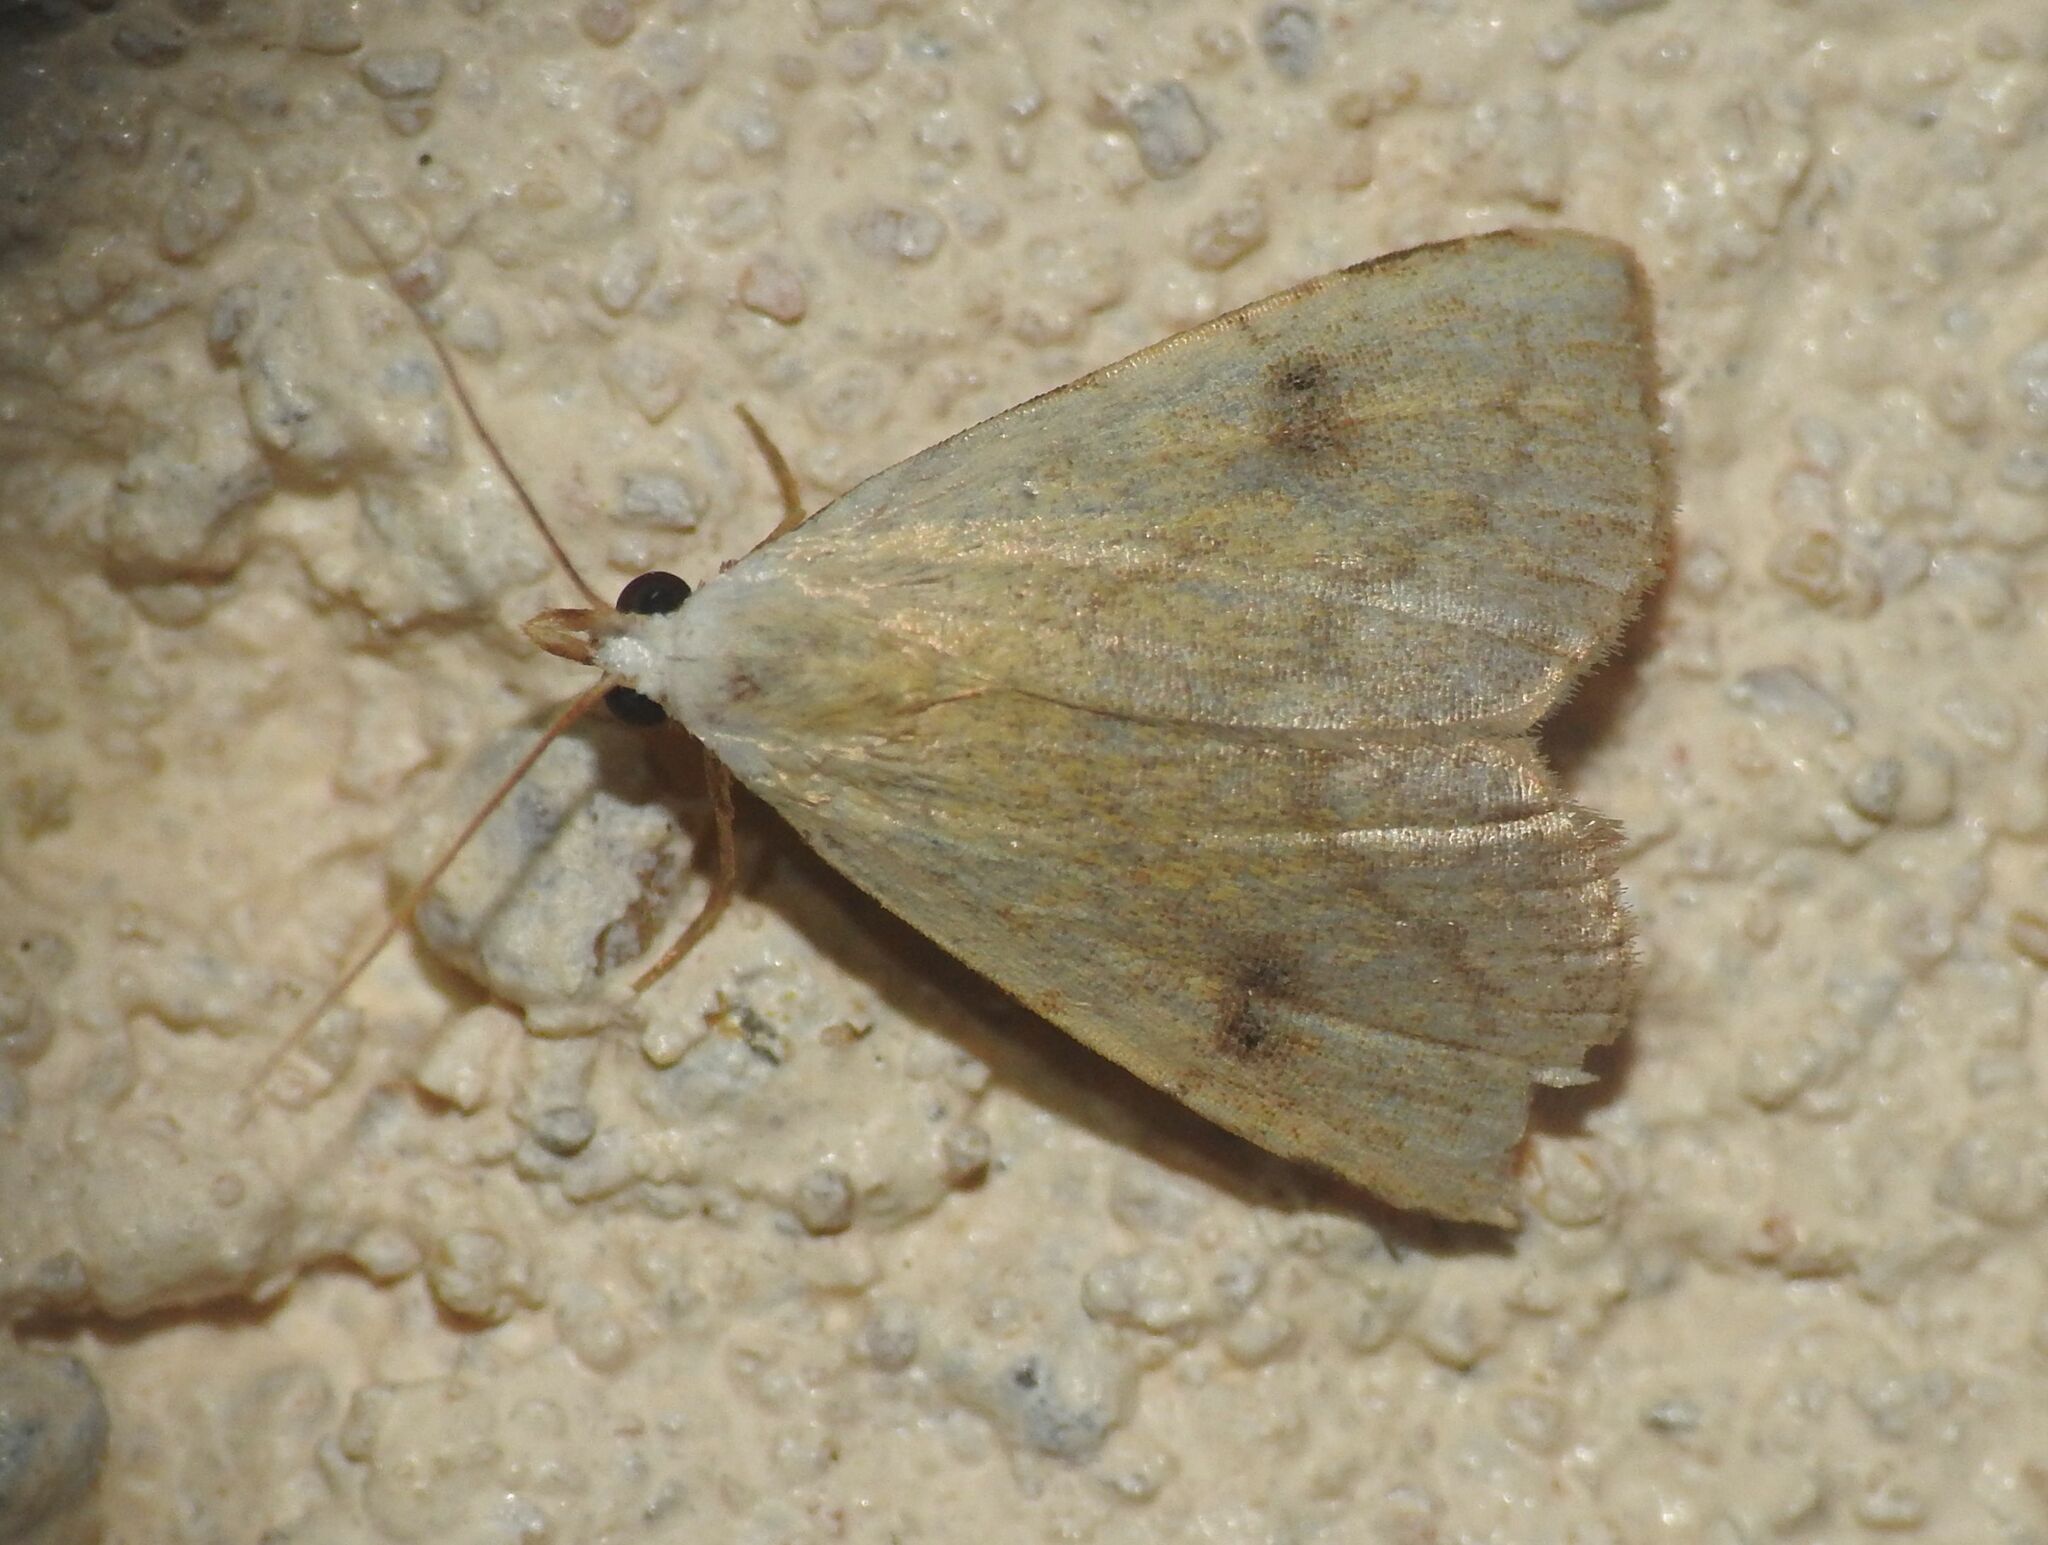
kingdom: Animalia
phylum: Arthropoda
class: Insecta
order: Lepidoptera
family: Erebidae
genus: Rivula
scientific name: Rivula sericealis
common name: Straw dot
